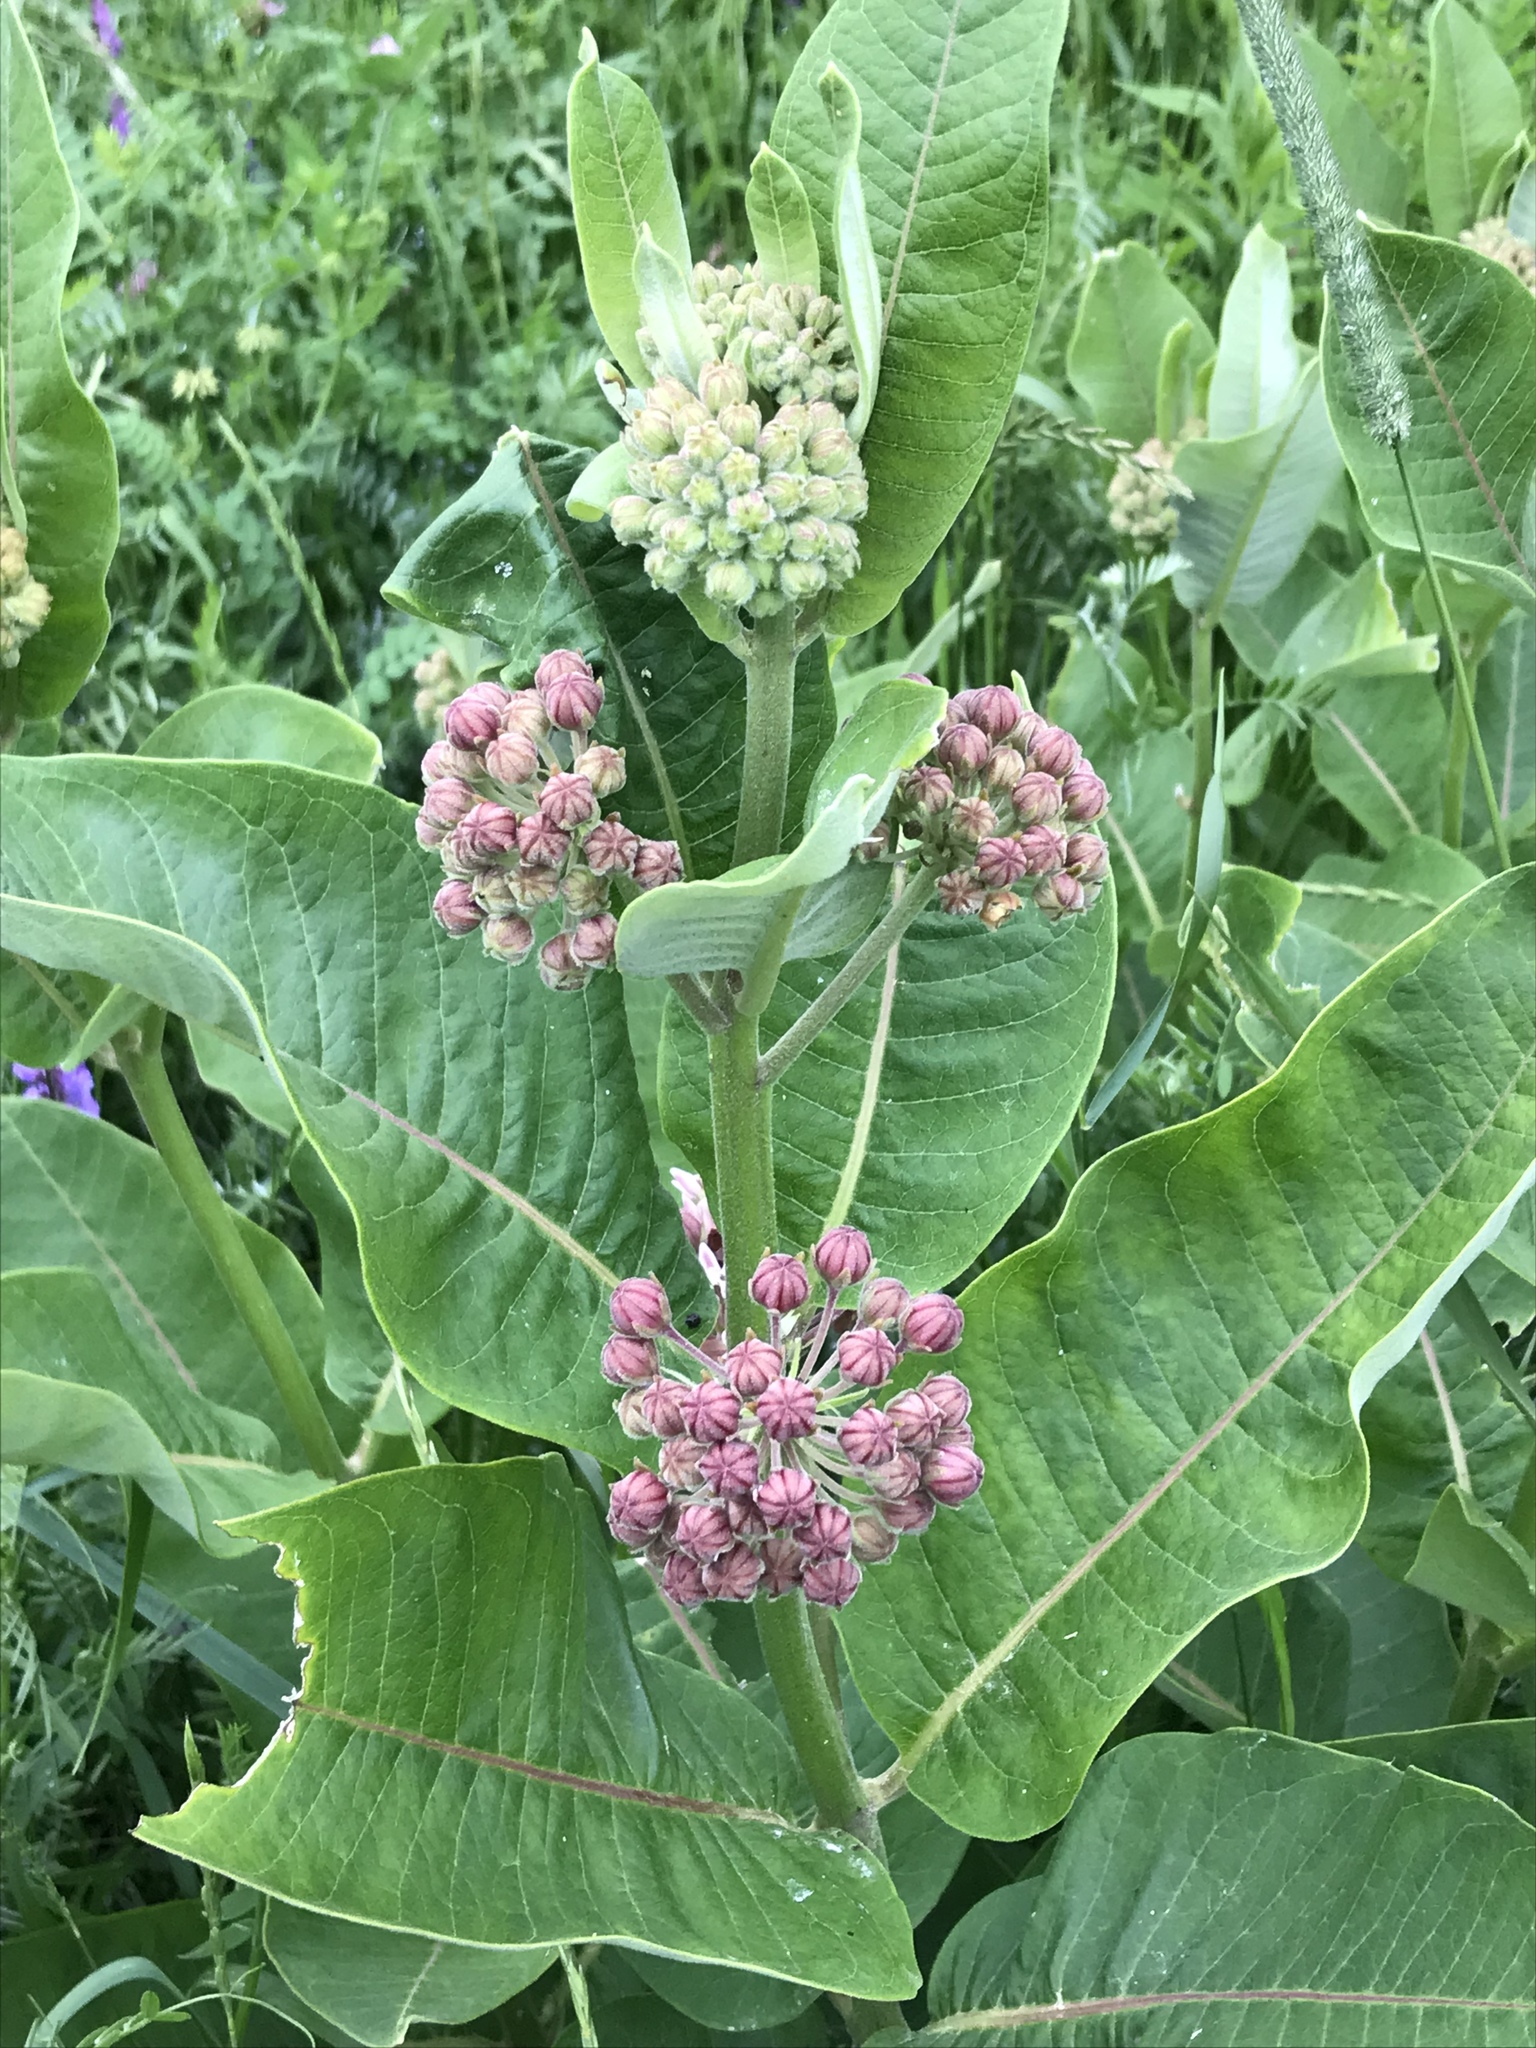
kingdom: Plantae
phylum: Tracheophyta
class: Magnoliopsida
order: Gentianales
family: Apocynaceae
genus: Asclepias
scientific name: Asclepias syriaca
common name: Common milkweed
